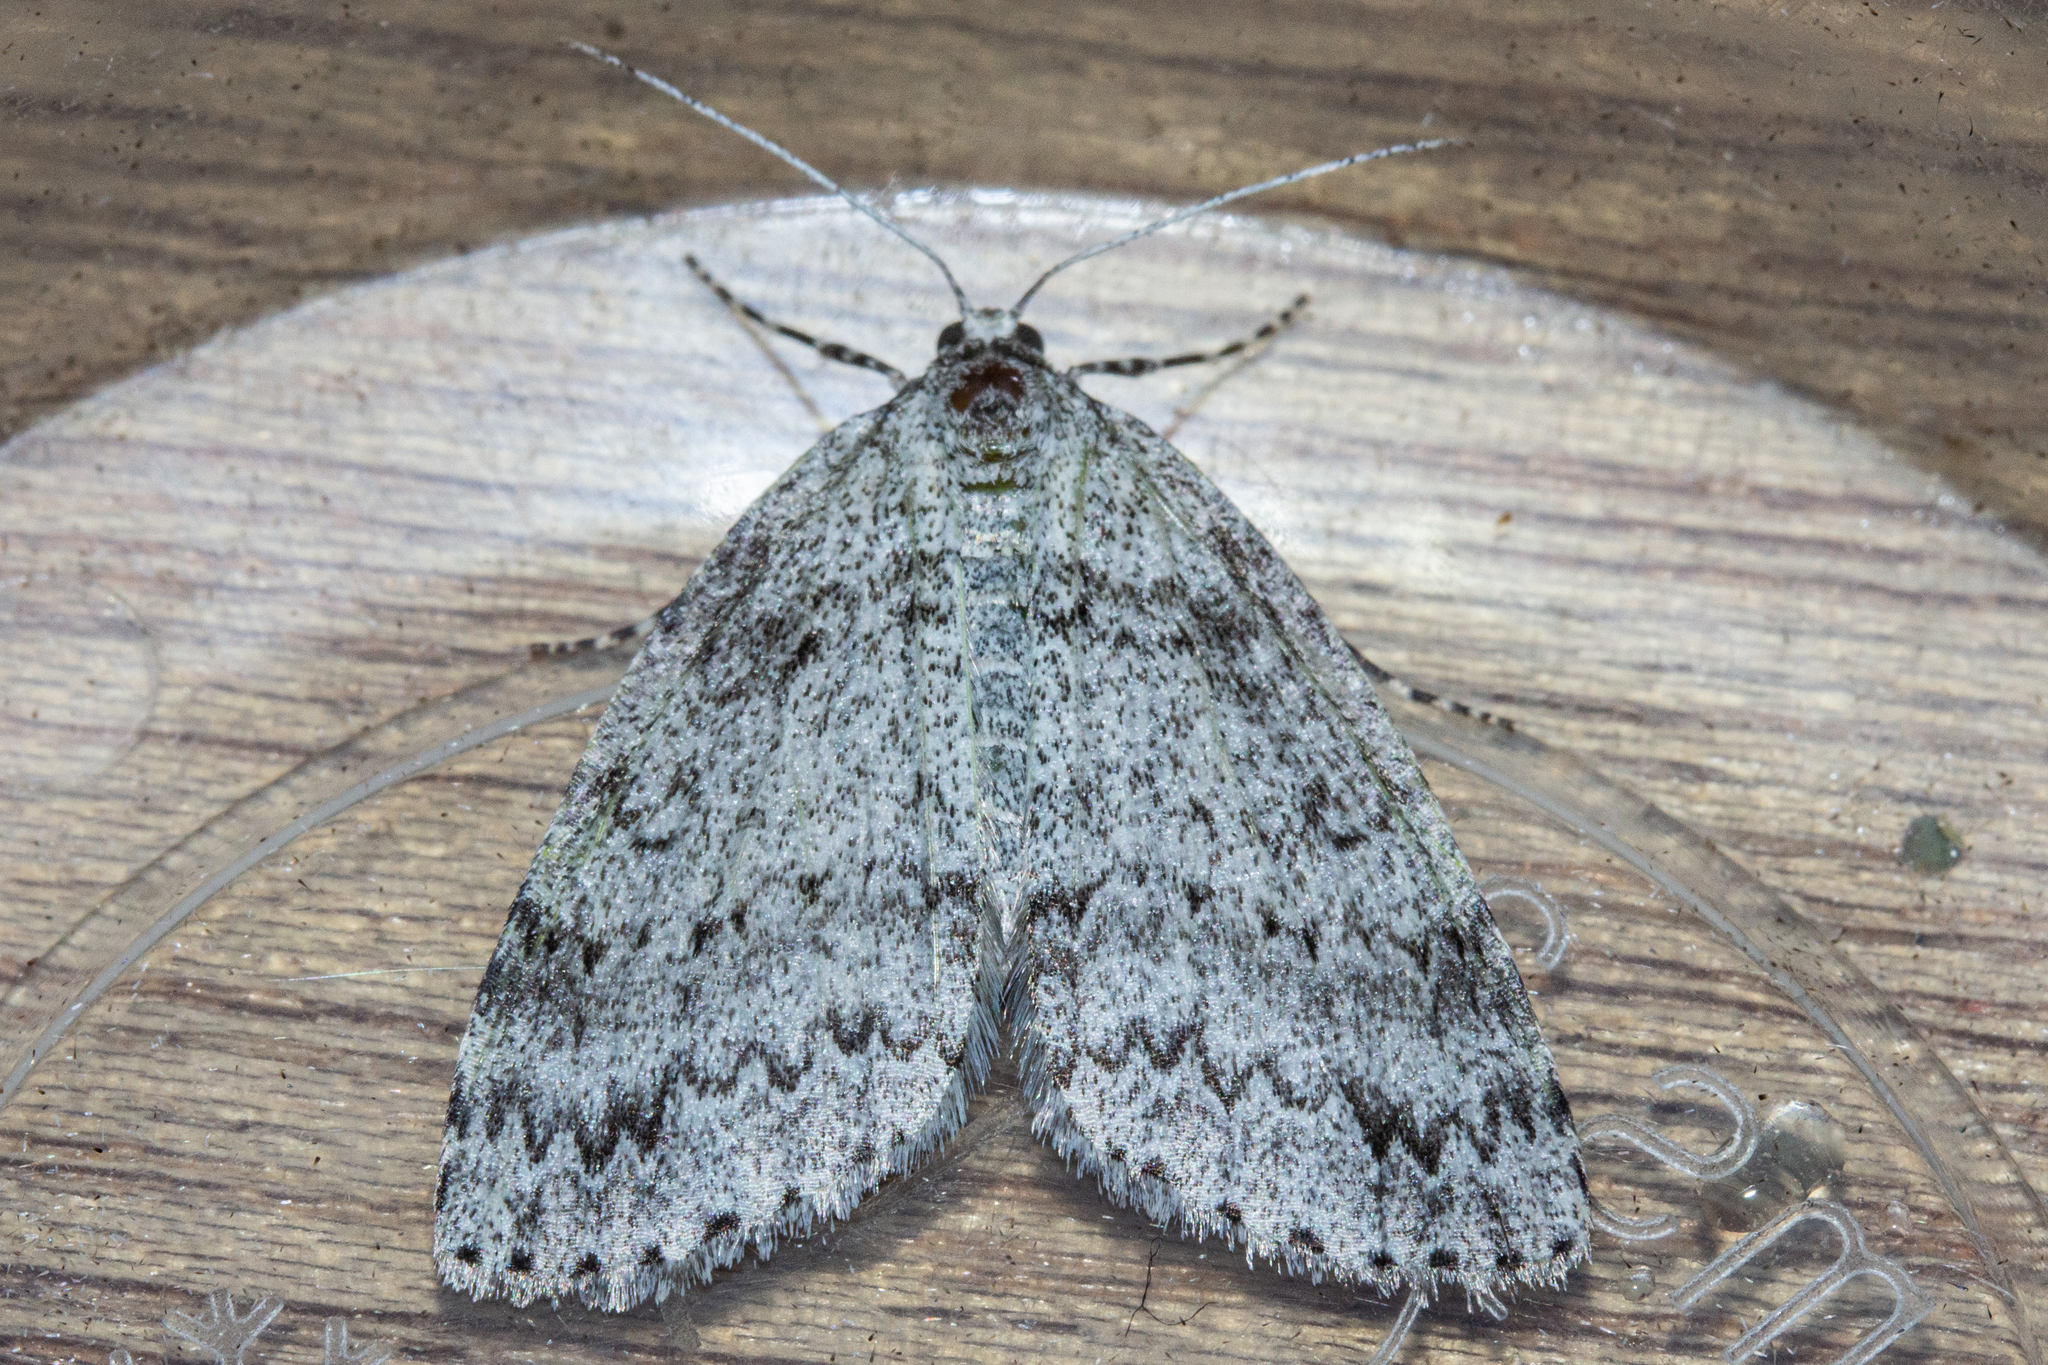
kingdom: Animalia
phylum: Arthropoda
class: Insecta
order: Lepidoptera
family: Geometridae
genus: Pseudocoremia
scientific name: Pseudocoremia fenerata
